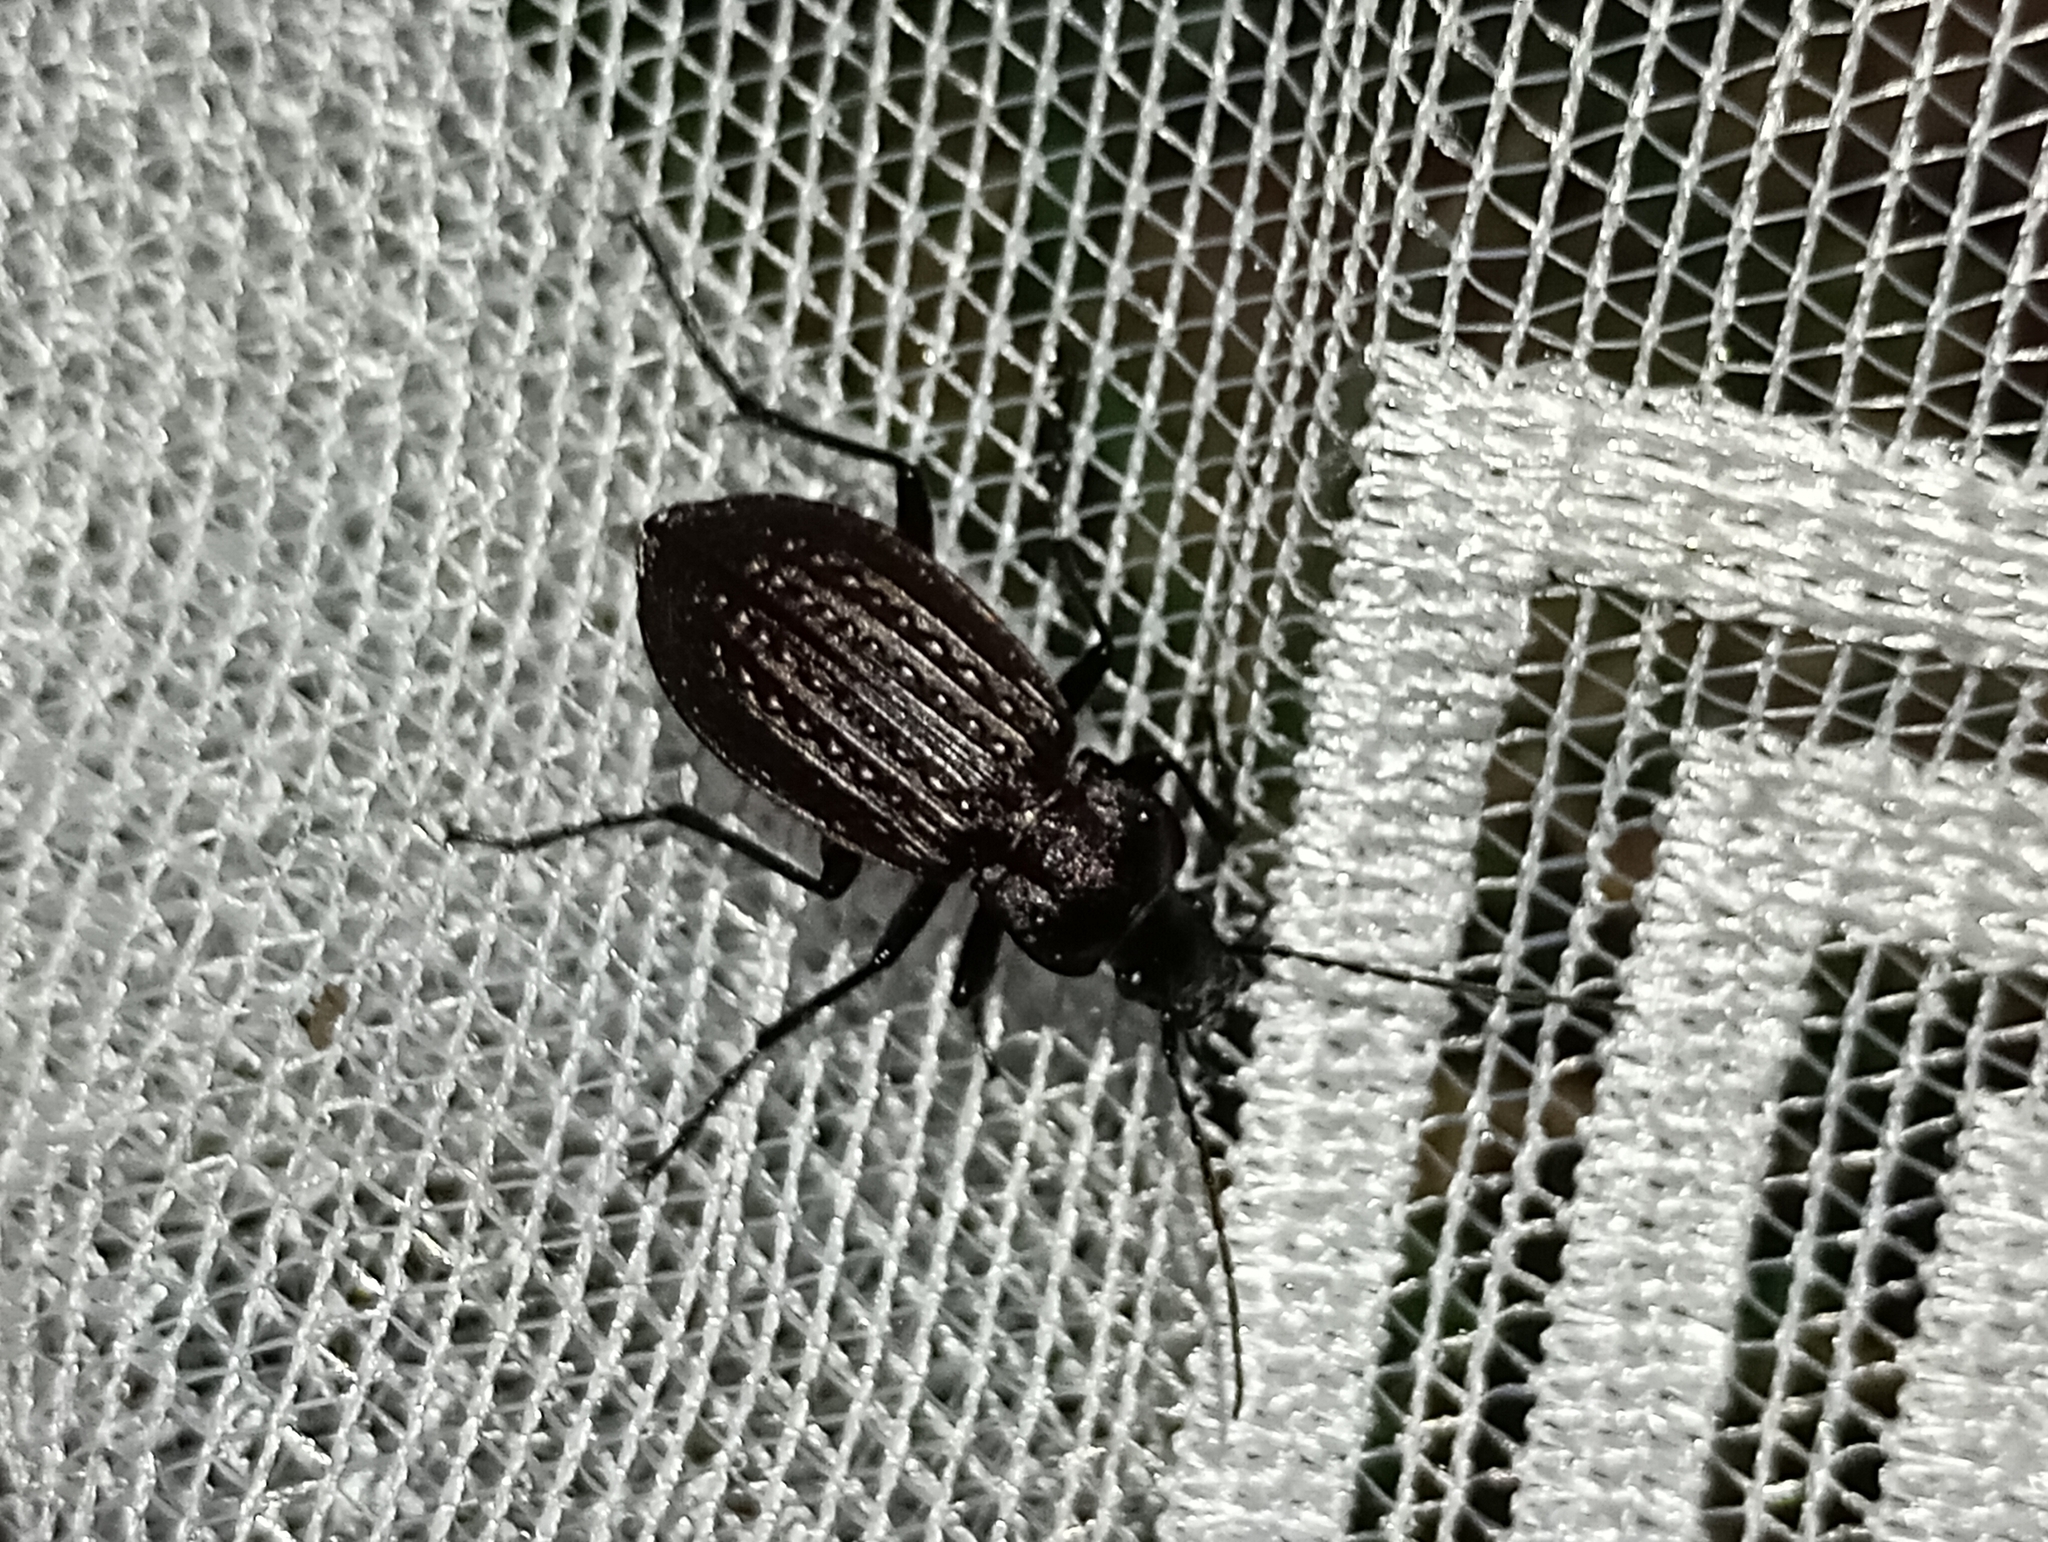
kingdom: Animalia
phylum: Arthropoda
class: Insecta
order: Coleoptera
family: Carabidae
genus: Carabus
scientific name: Carabus granulatus
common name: Granulate ground beetle
